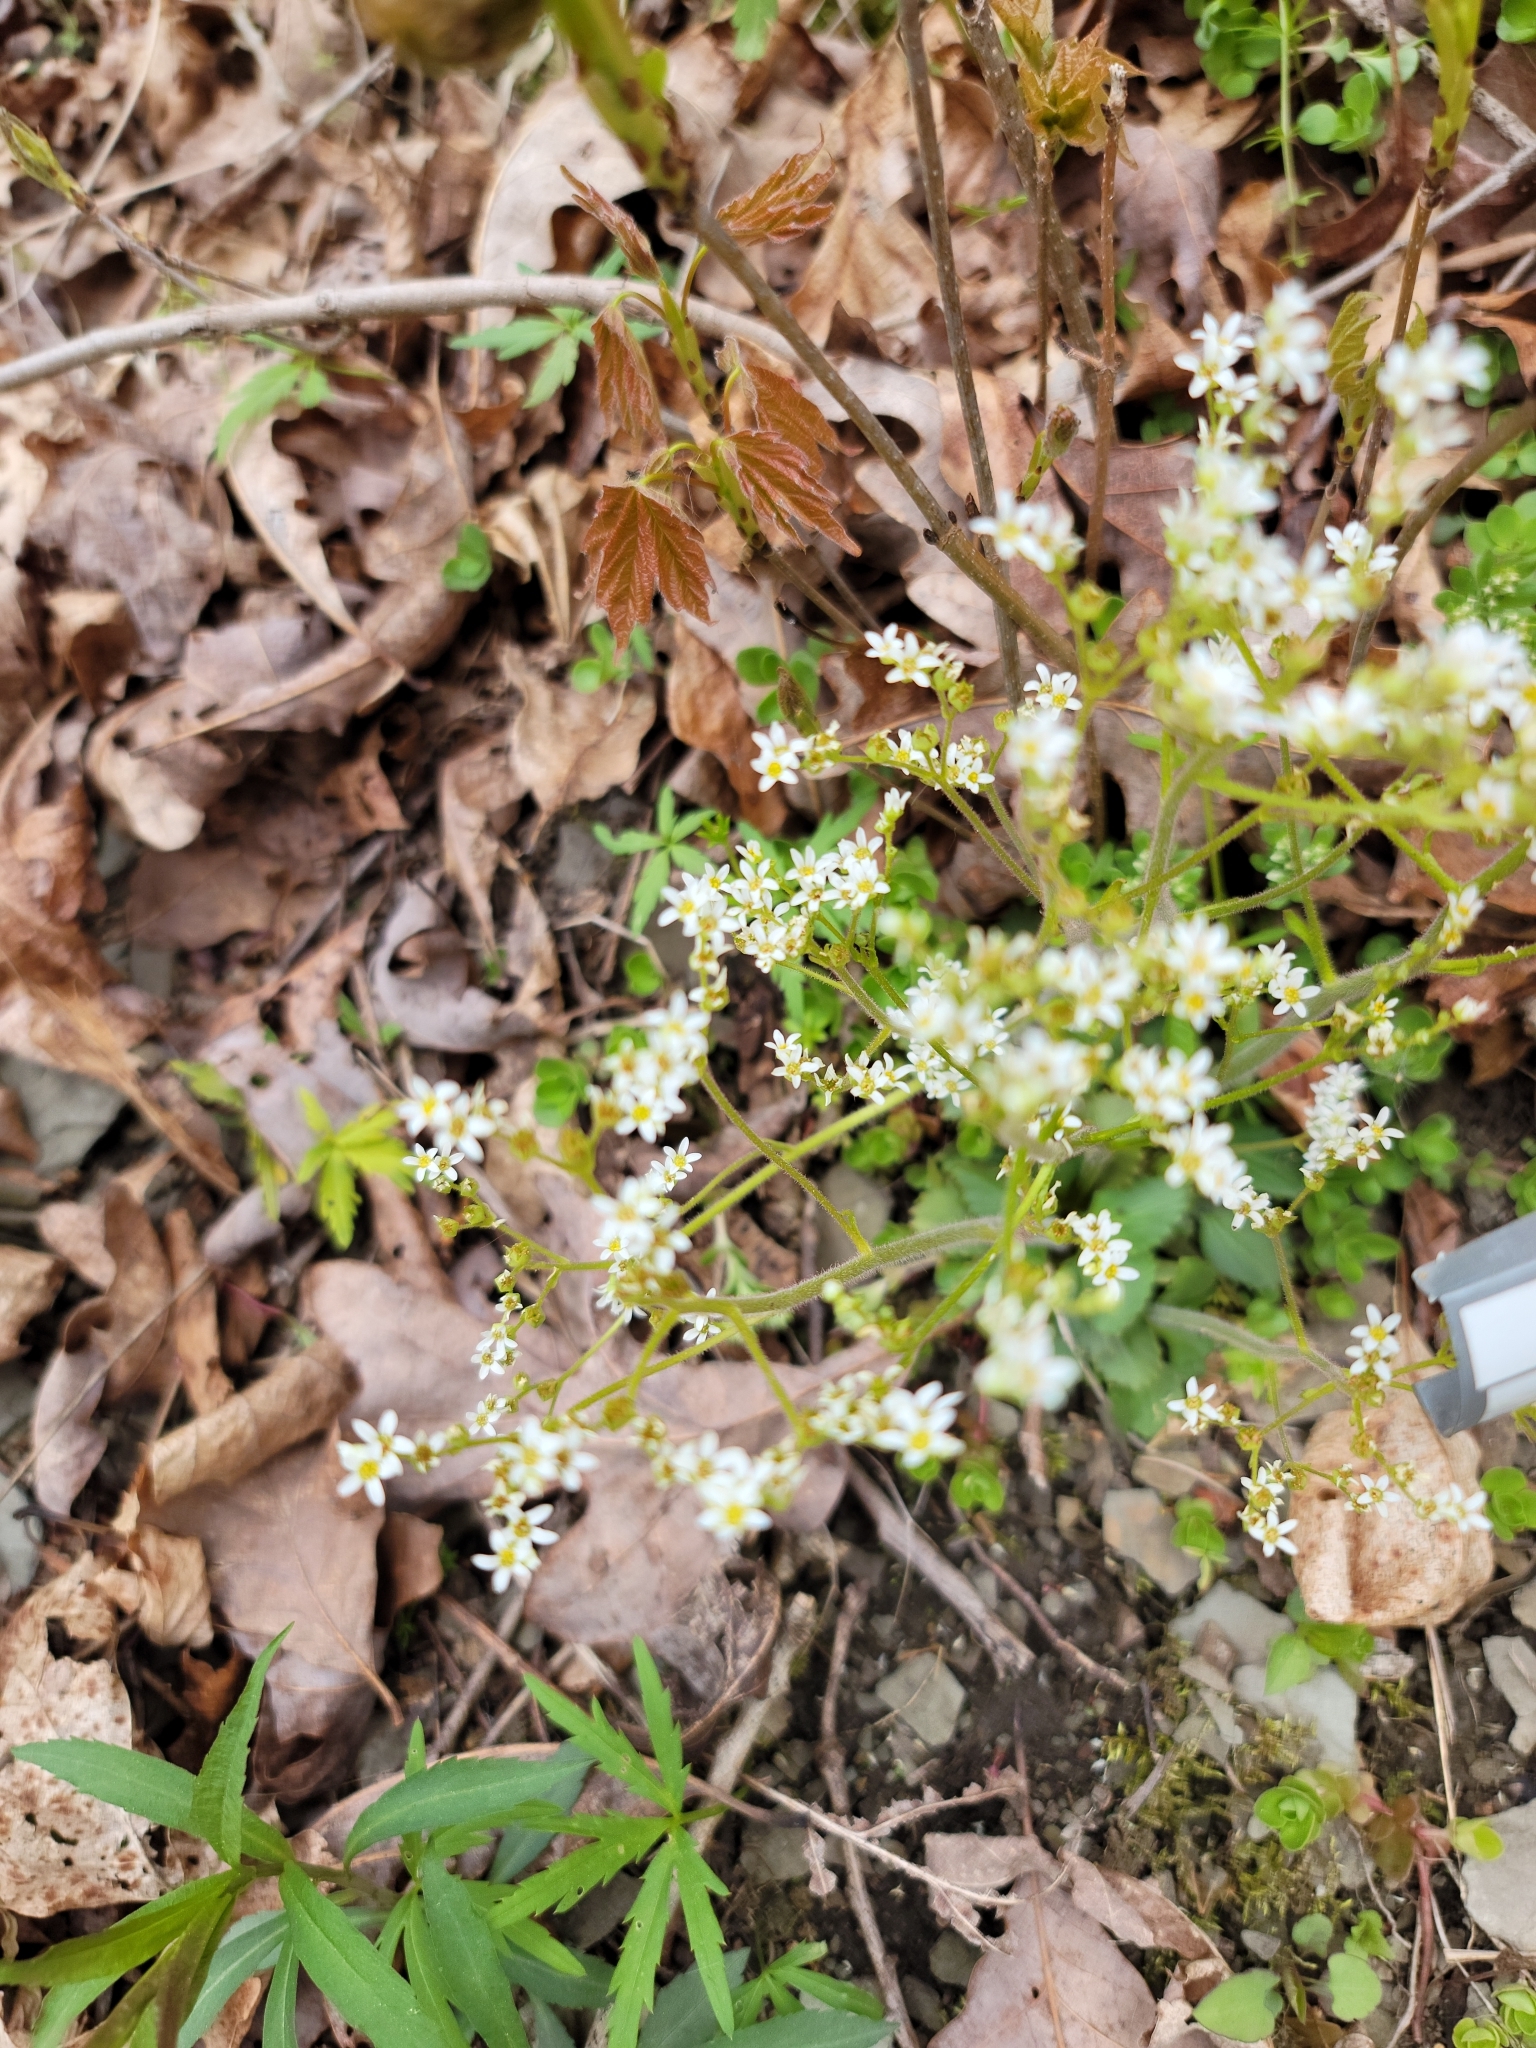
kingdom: Plantae
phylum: Tracheophyta
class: Magnoliopsida
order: Saxifragales
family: Saxifragaceae
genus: Micranthes
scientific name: Micranthes virginiensis
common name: Early saxifrage
